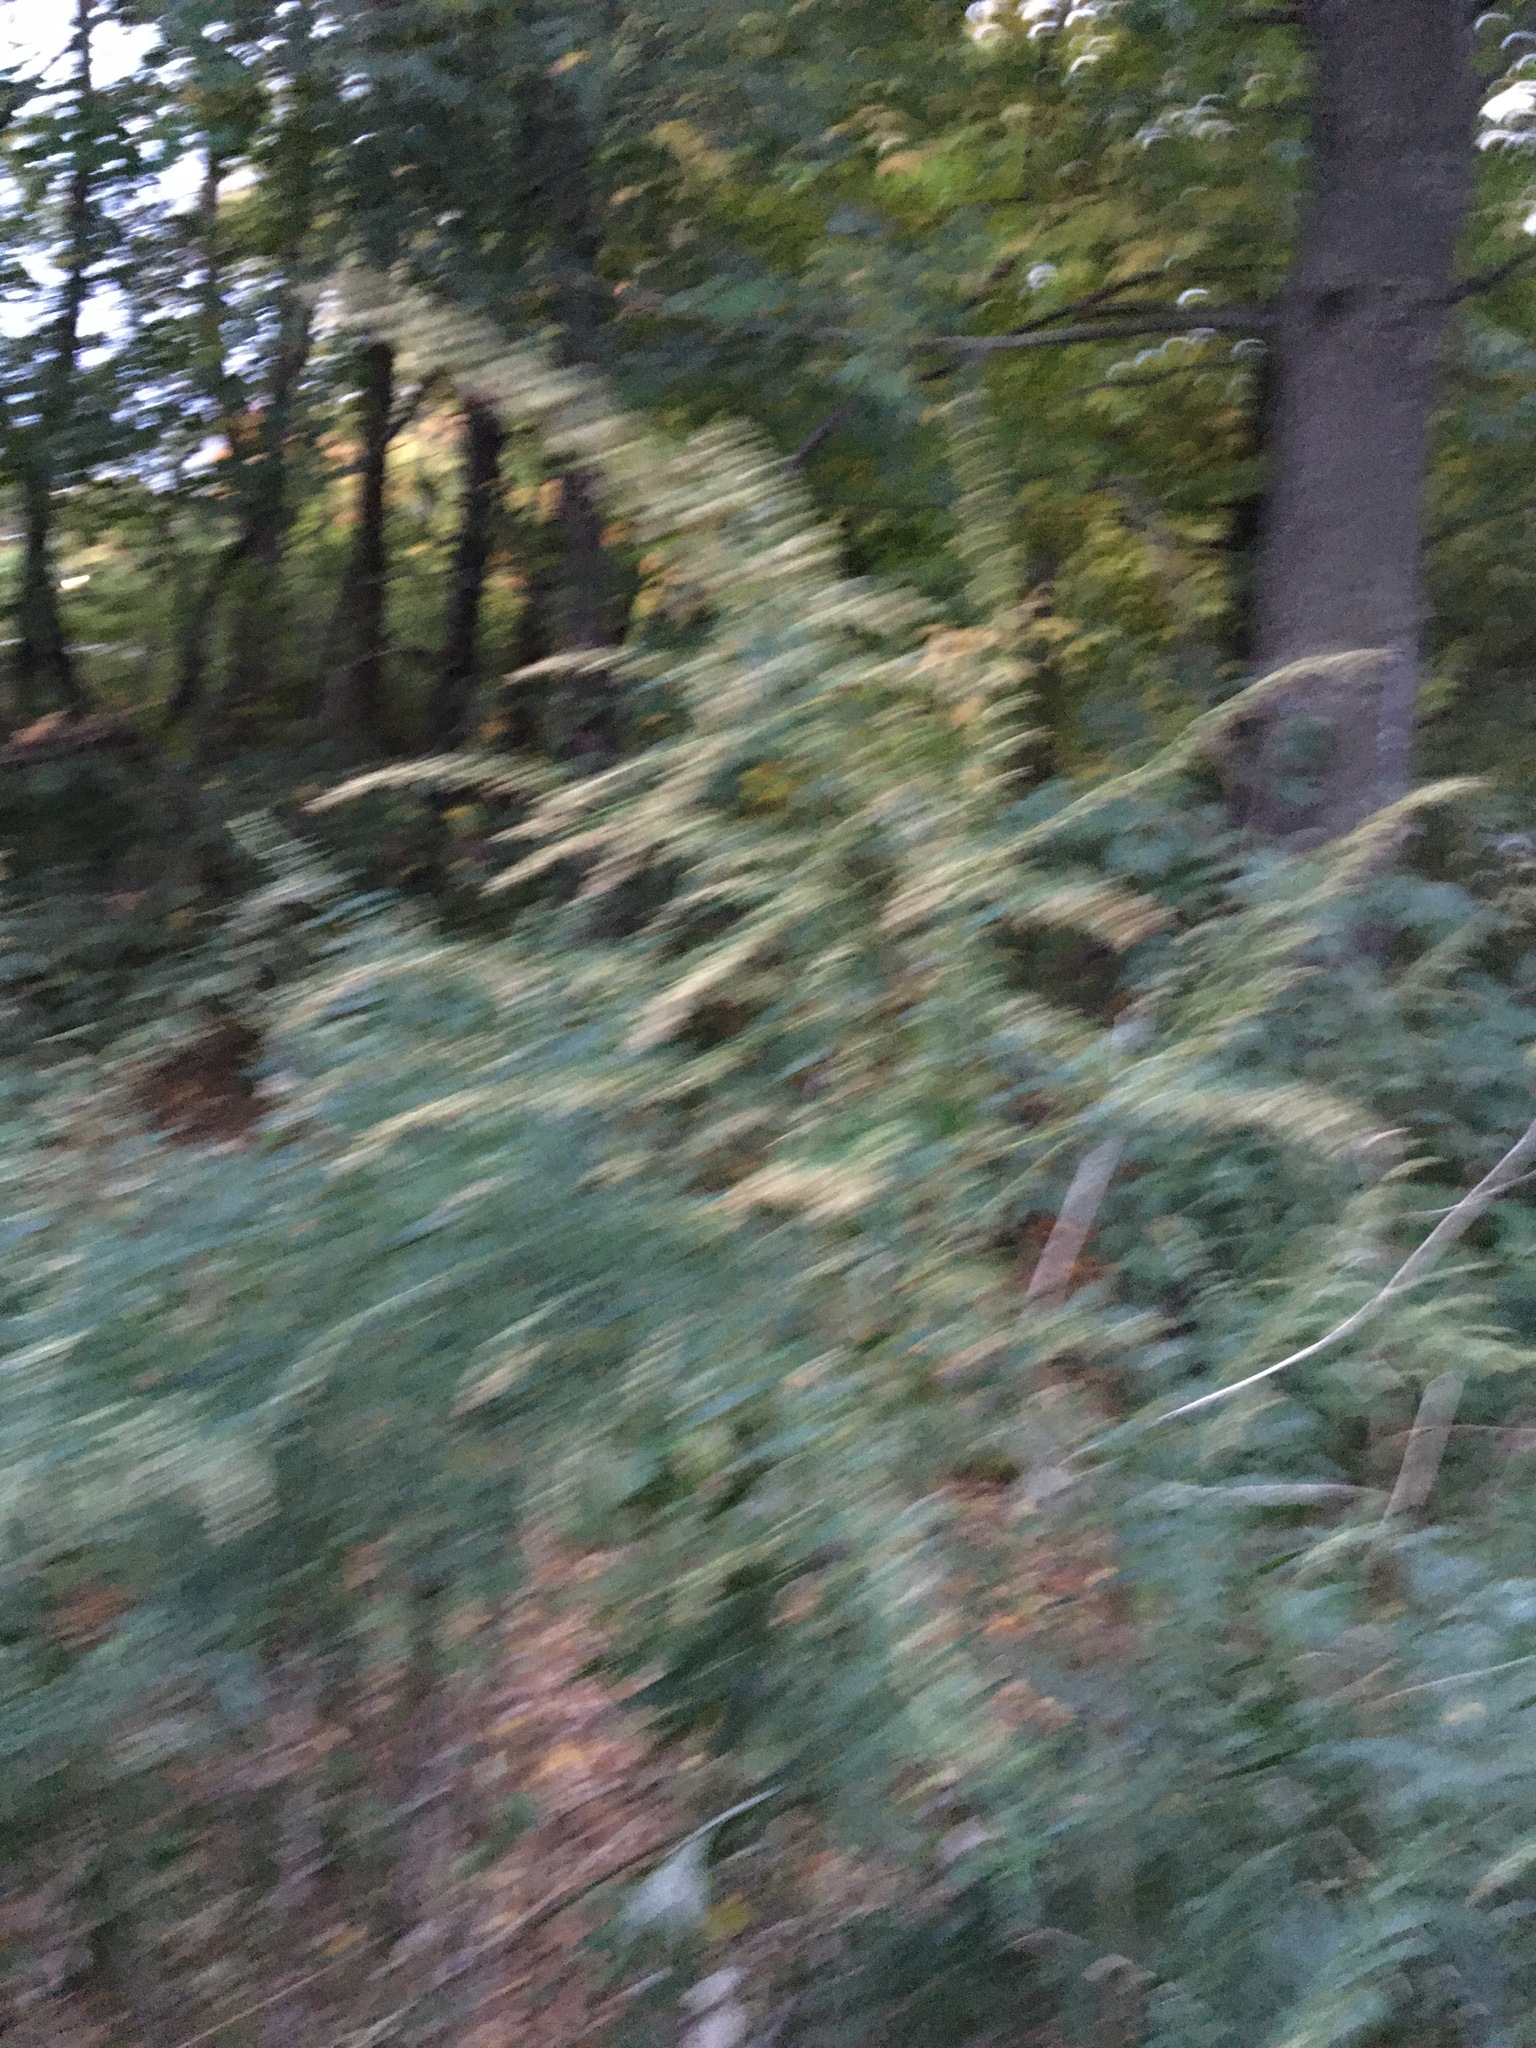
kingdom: Plantae
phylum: Tracheophyta
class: Magnoliopsida
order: Asterales
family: Asteraceae
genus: Artemisia
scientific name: Artemisia vulgaris
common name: Mugwort
